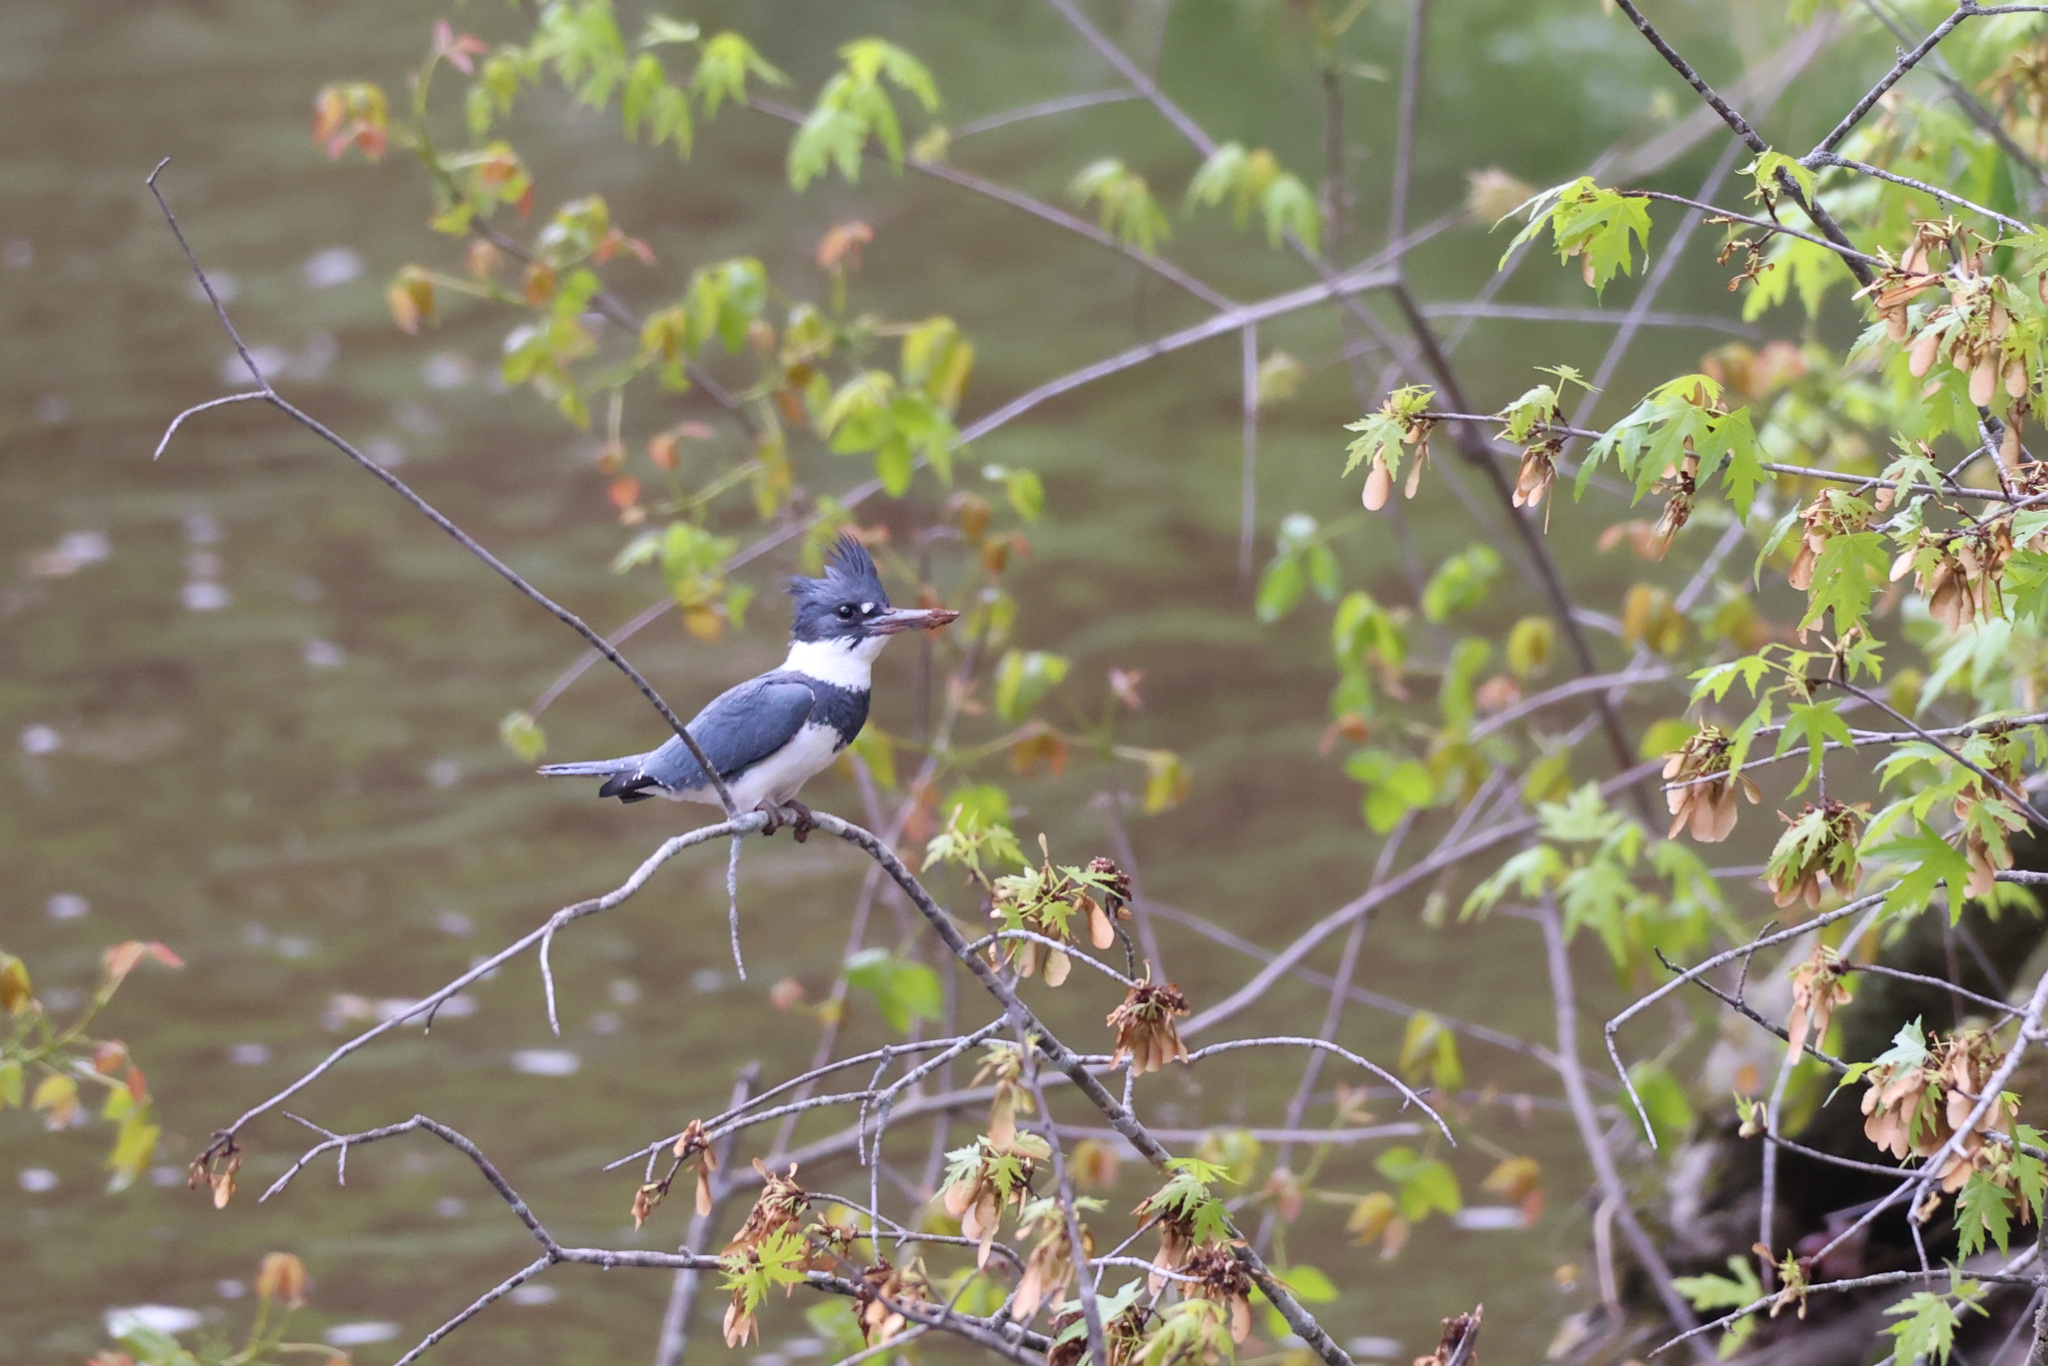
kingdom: Animalia
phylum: Chordata
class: Aves
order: Coraciiformes
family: Alcedinidae
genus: Megaceryle
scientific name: Megaceryle alcyon
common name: Belted kingfisher
